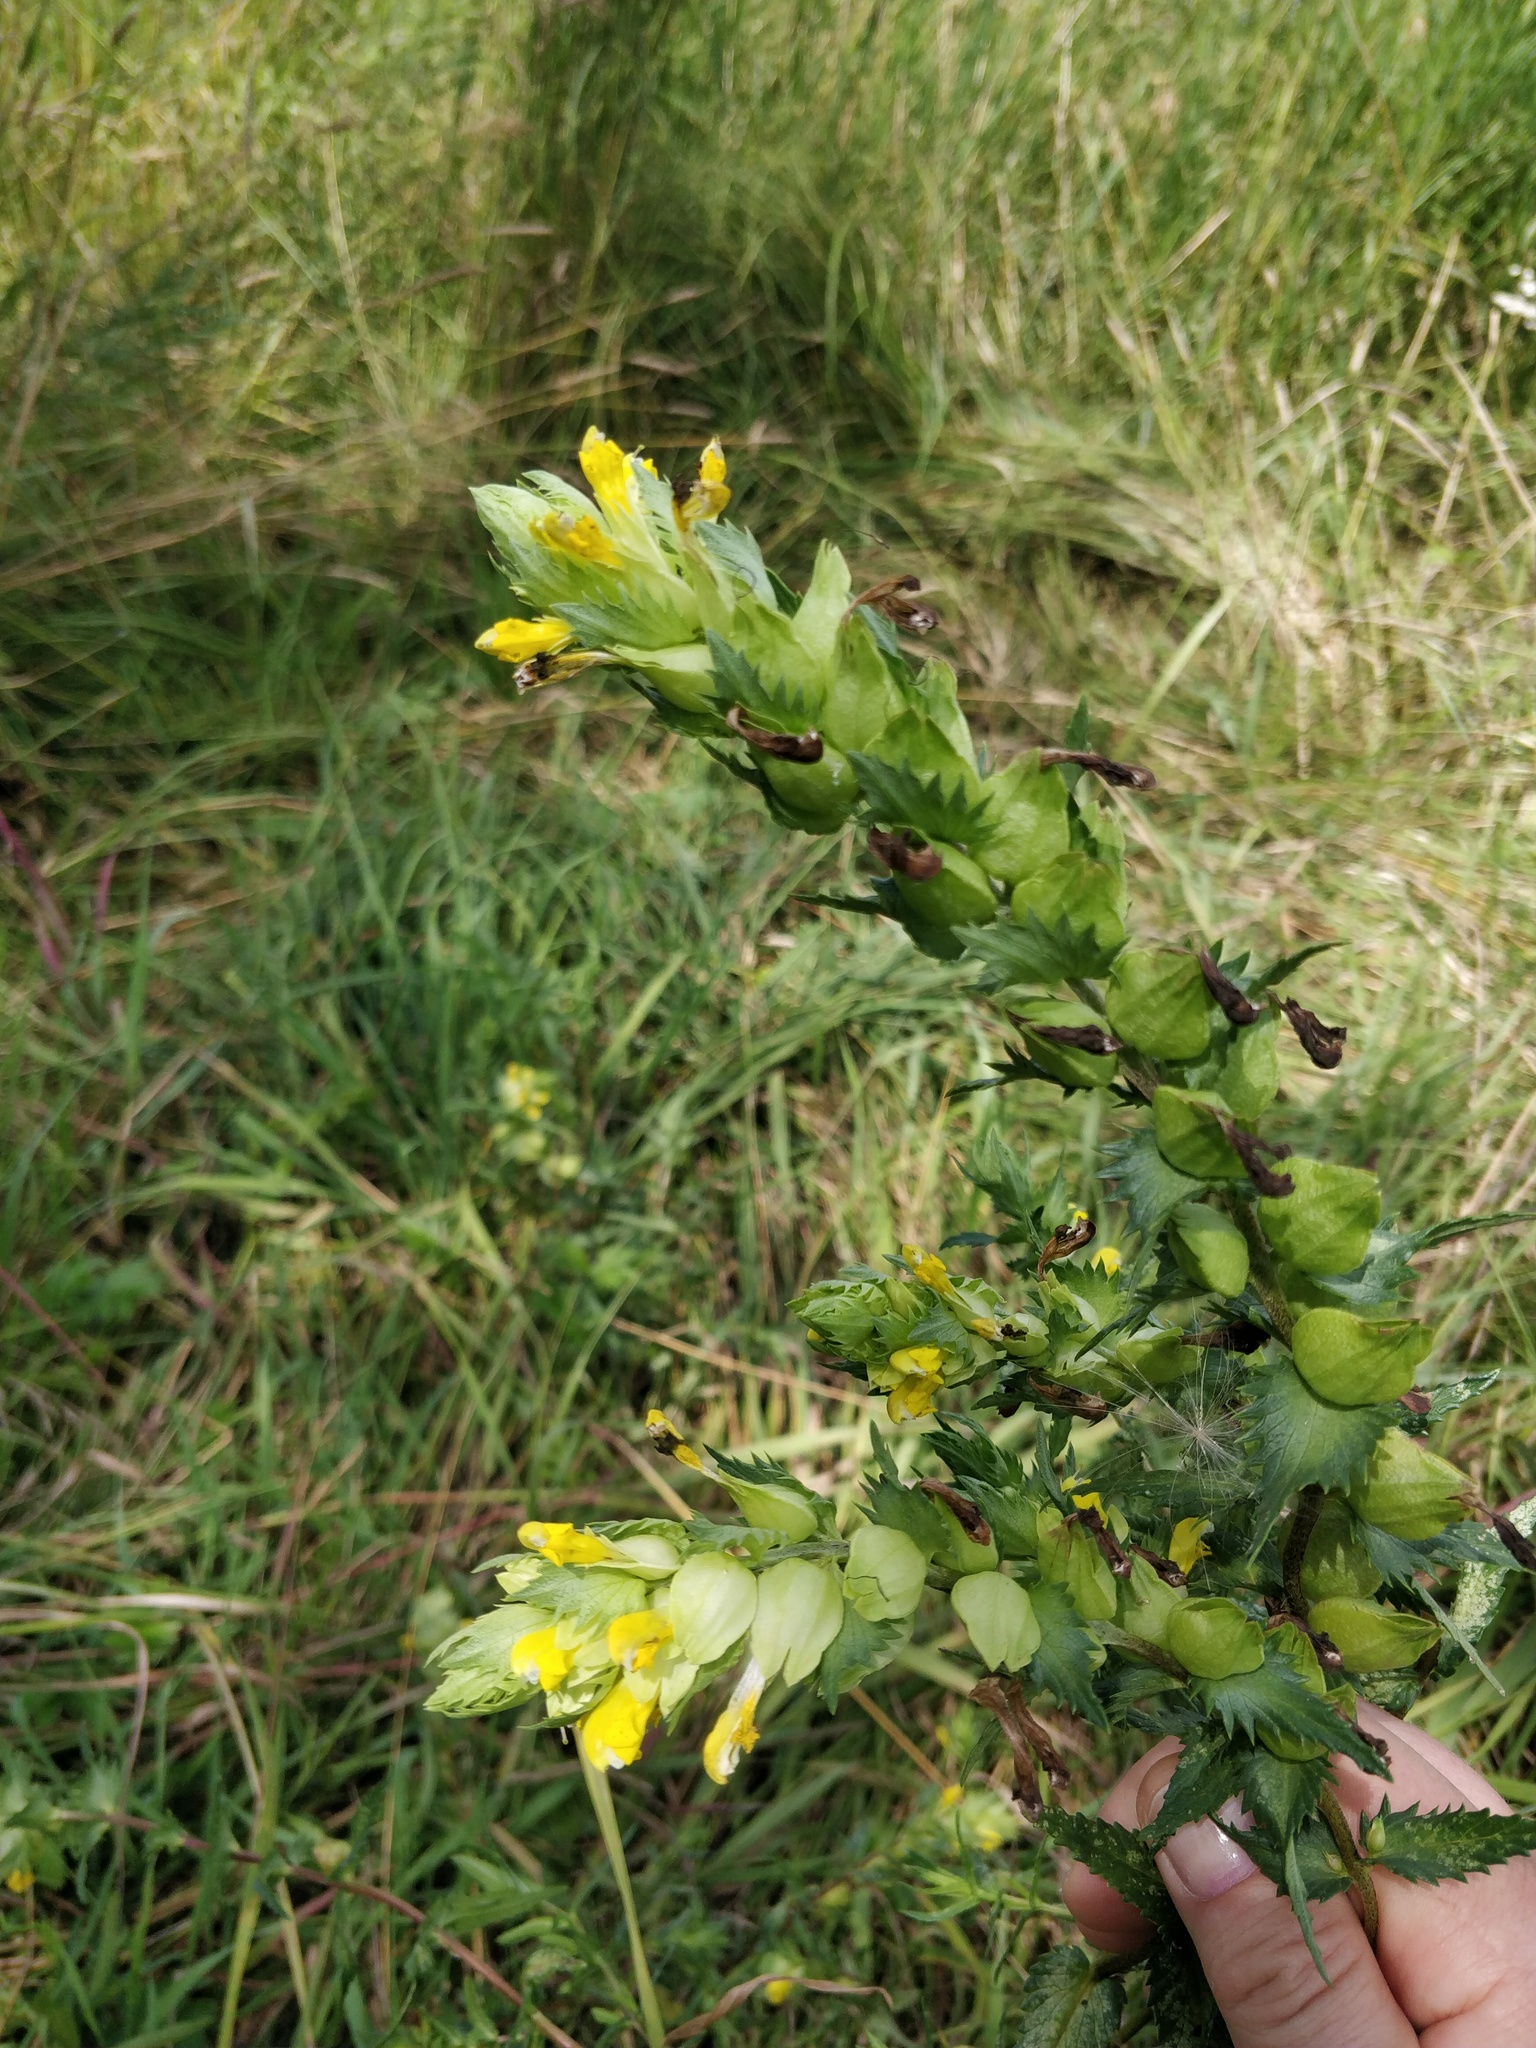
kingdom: Plantae
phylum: Tracheophyta
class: Magnoliopsida
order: Lamiales
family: Orobanchaceae
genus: Rhinanthus
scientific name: Rhinanthus serotinus
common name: Late-flowering yellow rattle
